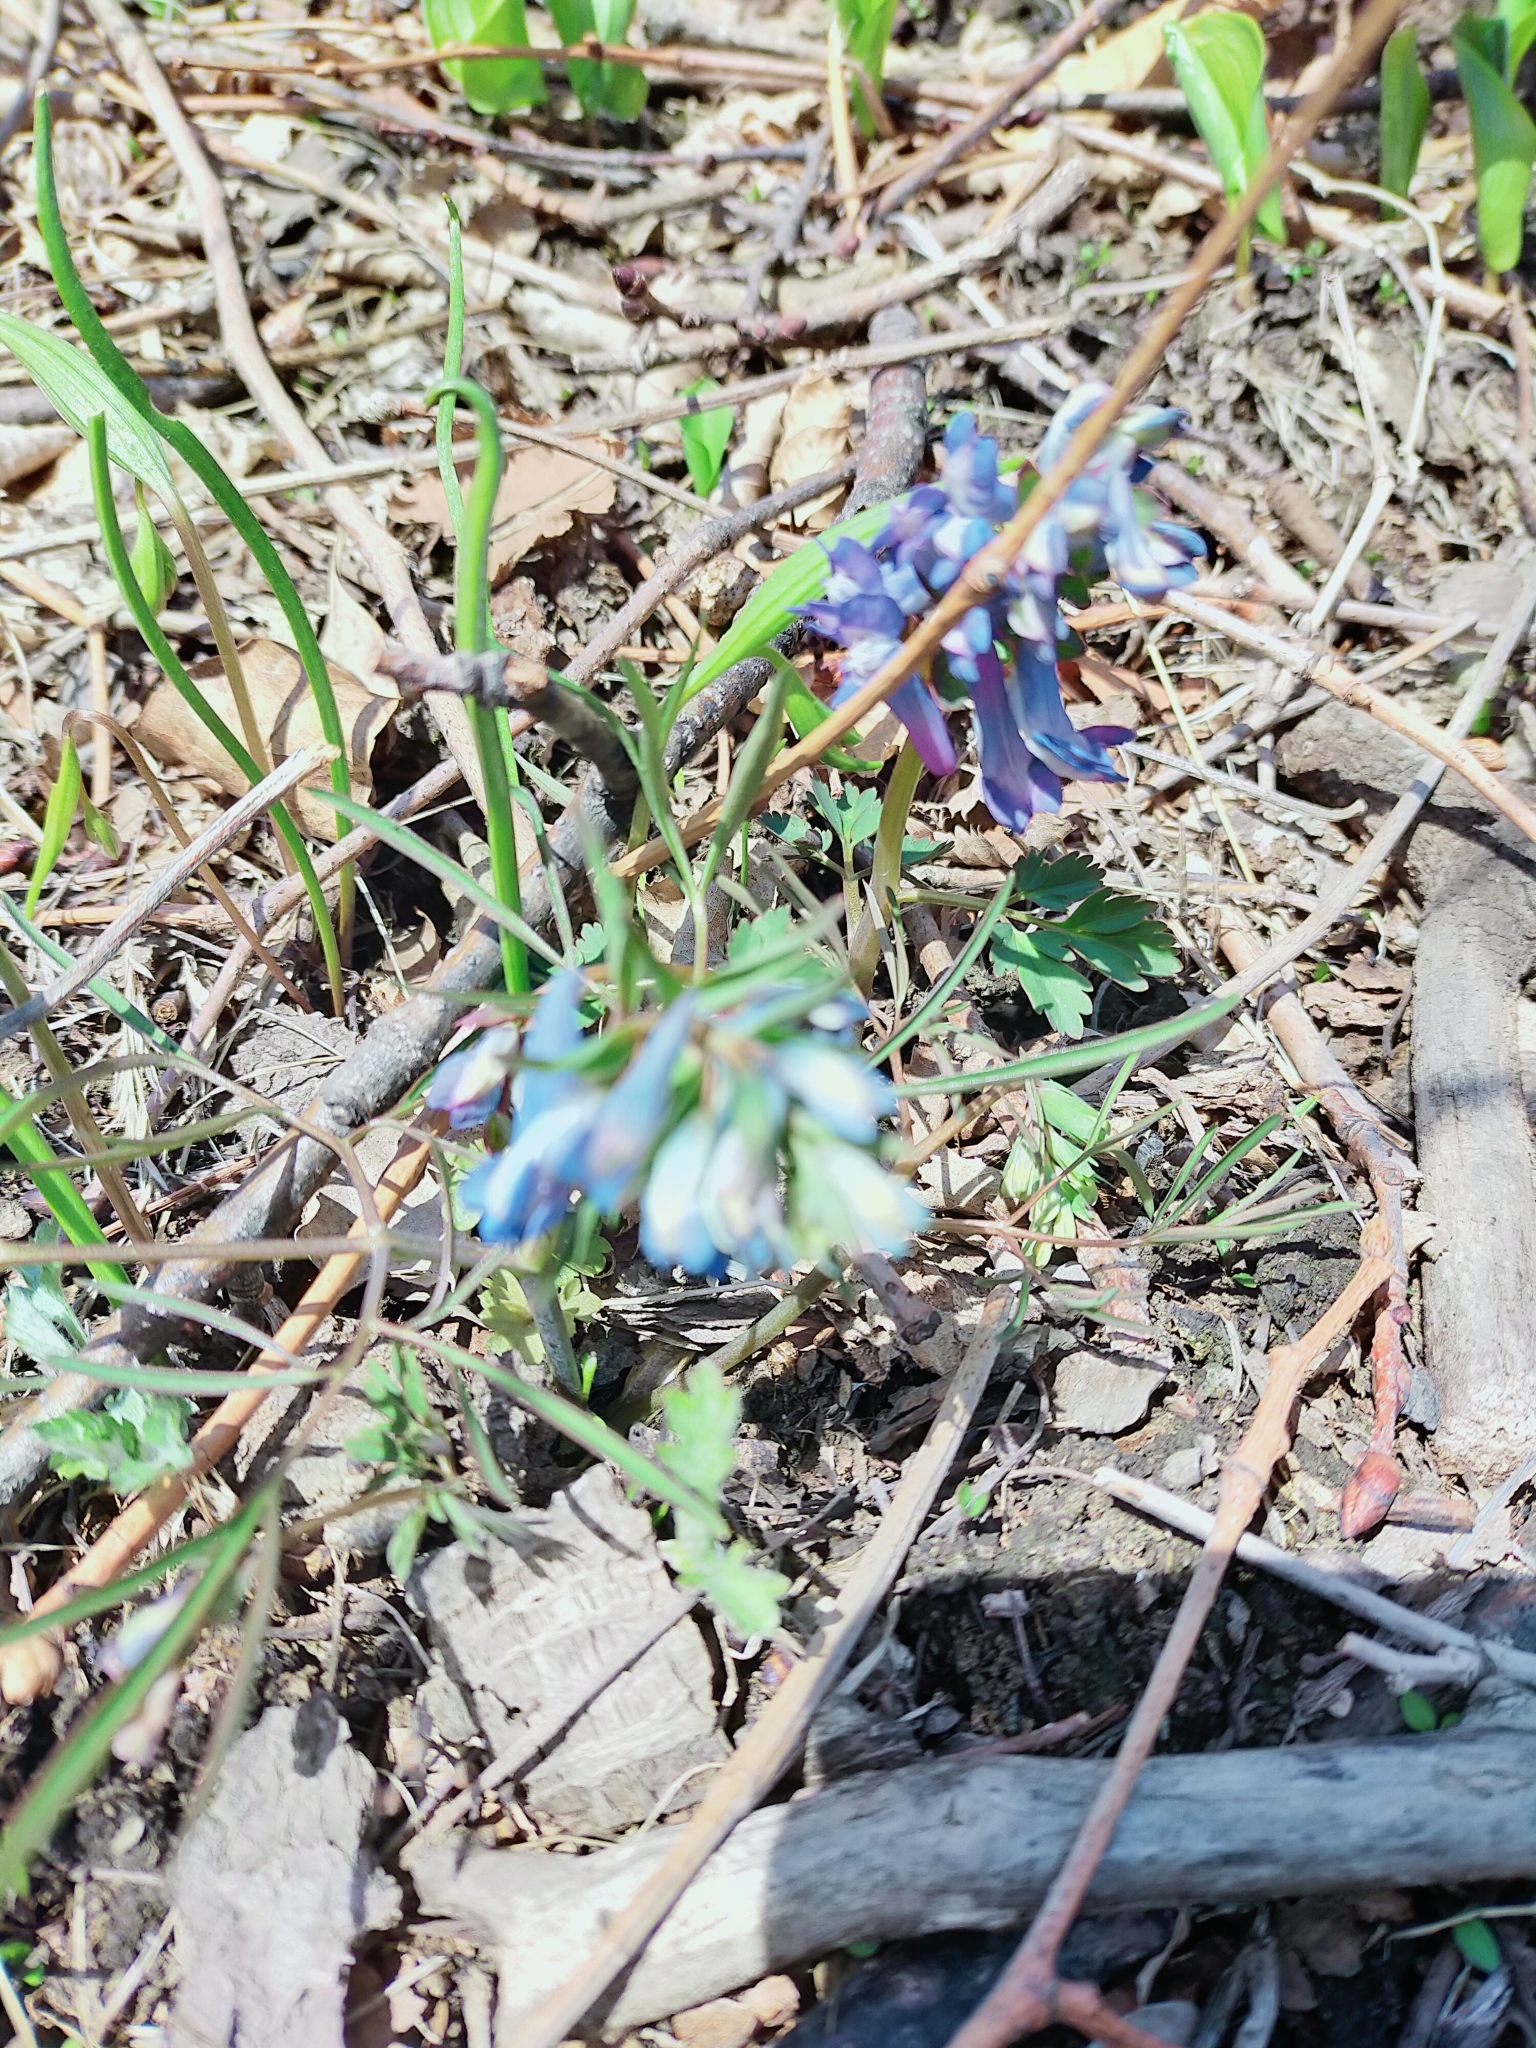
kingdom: Plantae
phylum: Tracheophyta
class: Magnoliopsida
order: Ranunculales
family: Papaveraceae
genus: Corydalis
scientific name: Corydalis ambigua
